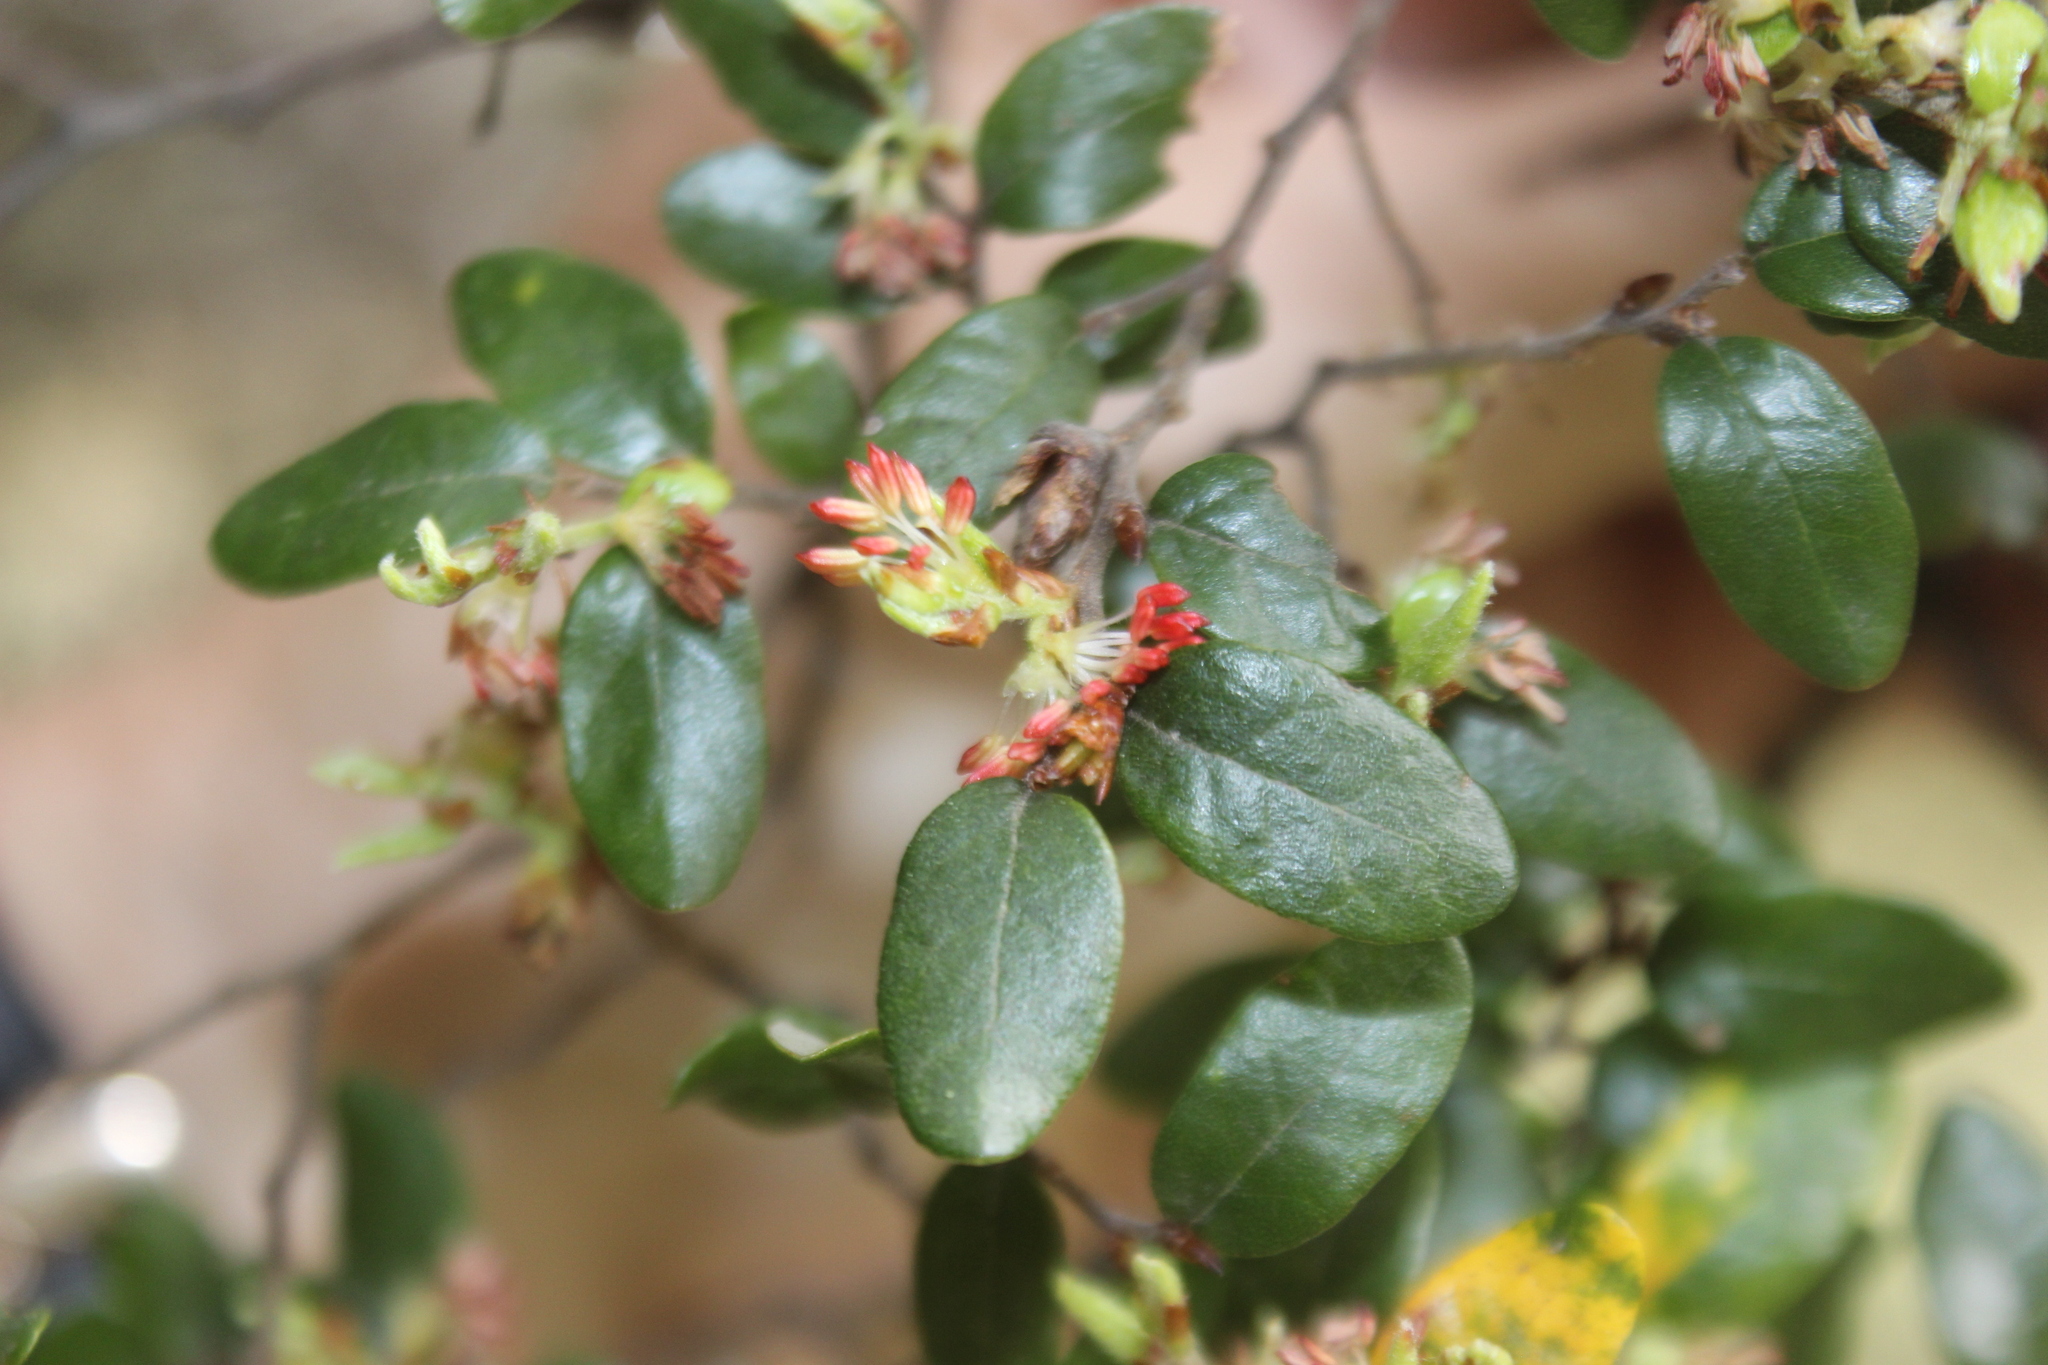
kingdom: Plantae
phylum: Tracheophyta
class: Magnoliopsida
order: Fagales
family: Nothofagaceae
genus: Nothofagus
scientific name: Nothofagus solandri
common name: Black beech
